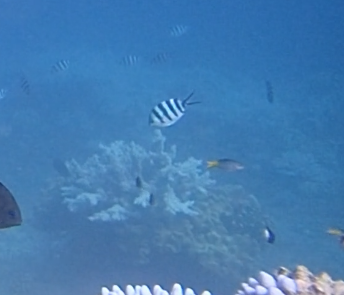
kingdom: Animalia
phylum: Chordata
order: Perciformes
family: Pomacentridae
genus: Abudefduf
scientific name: Abudefduf sexfasciatus
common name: Scissortail sergeant
